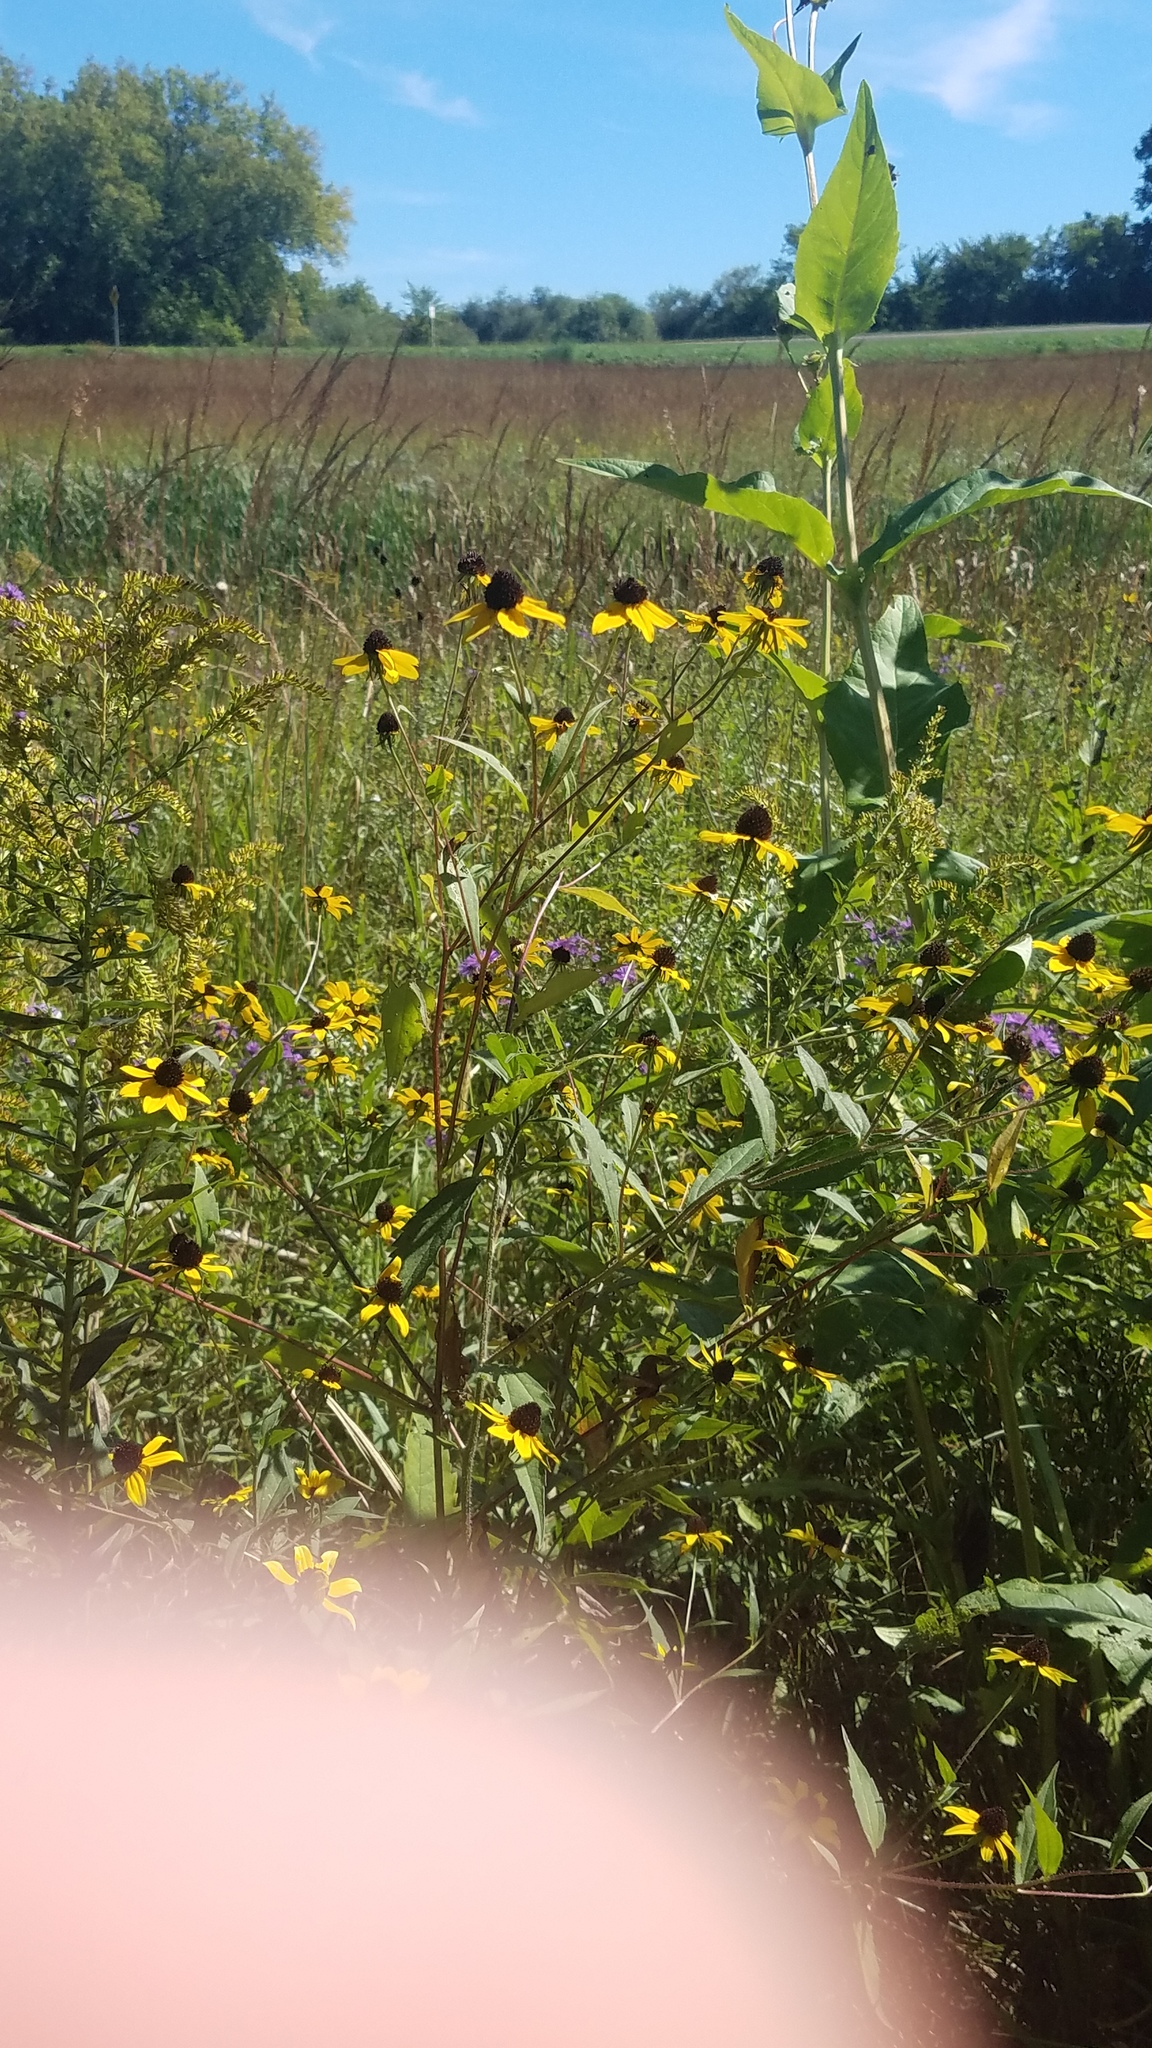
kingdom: Plantae
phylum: Tracheophyta
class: Magnoliopsida
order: Asterales
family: Asteraceae
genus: Rudbeckia
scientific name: Rudbeckia triloba
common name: Thin-leaved coneflower
